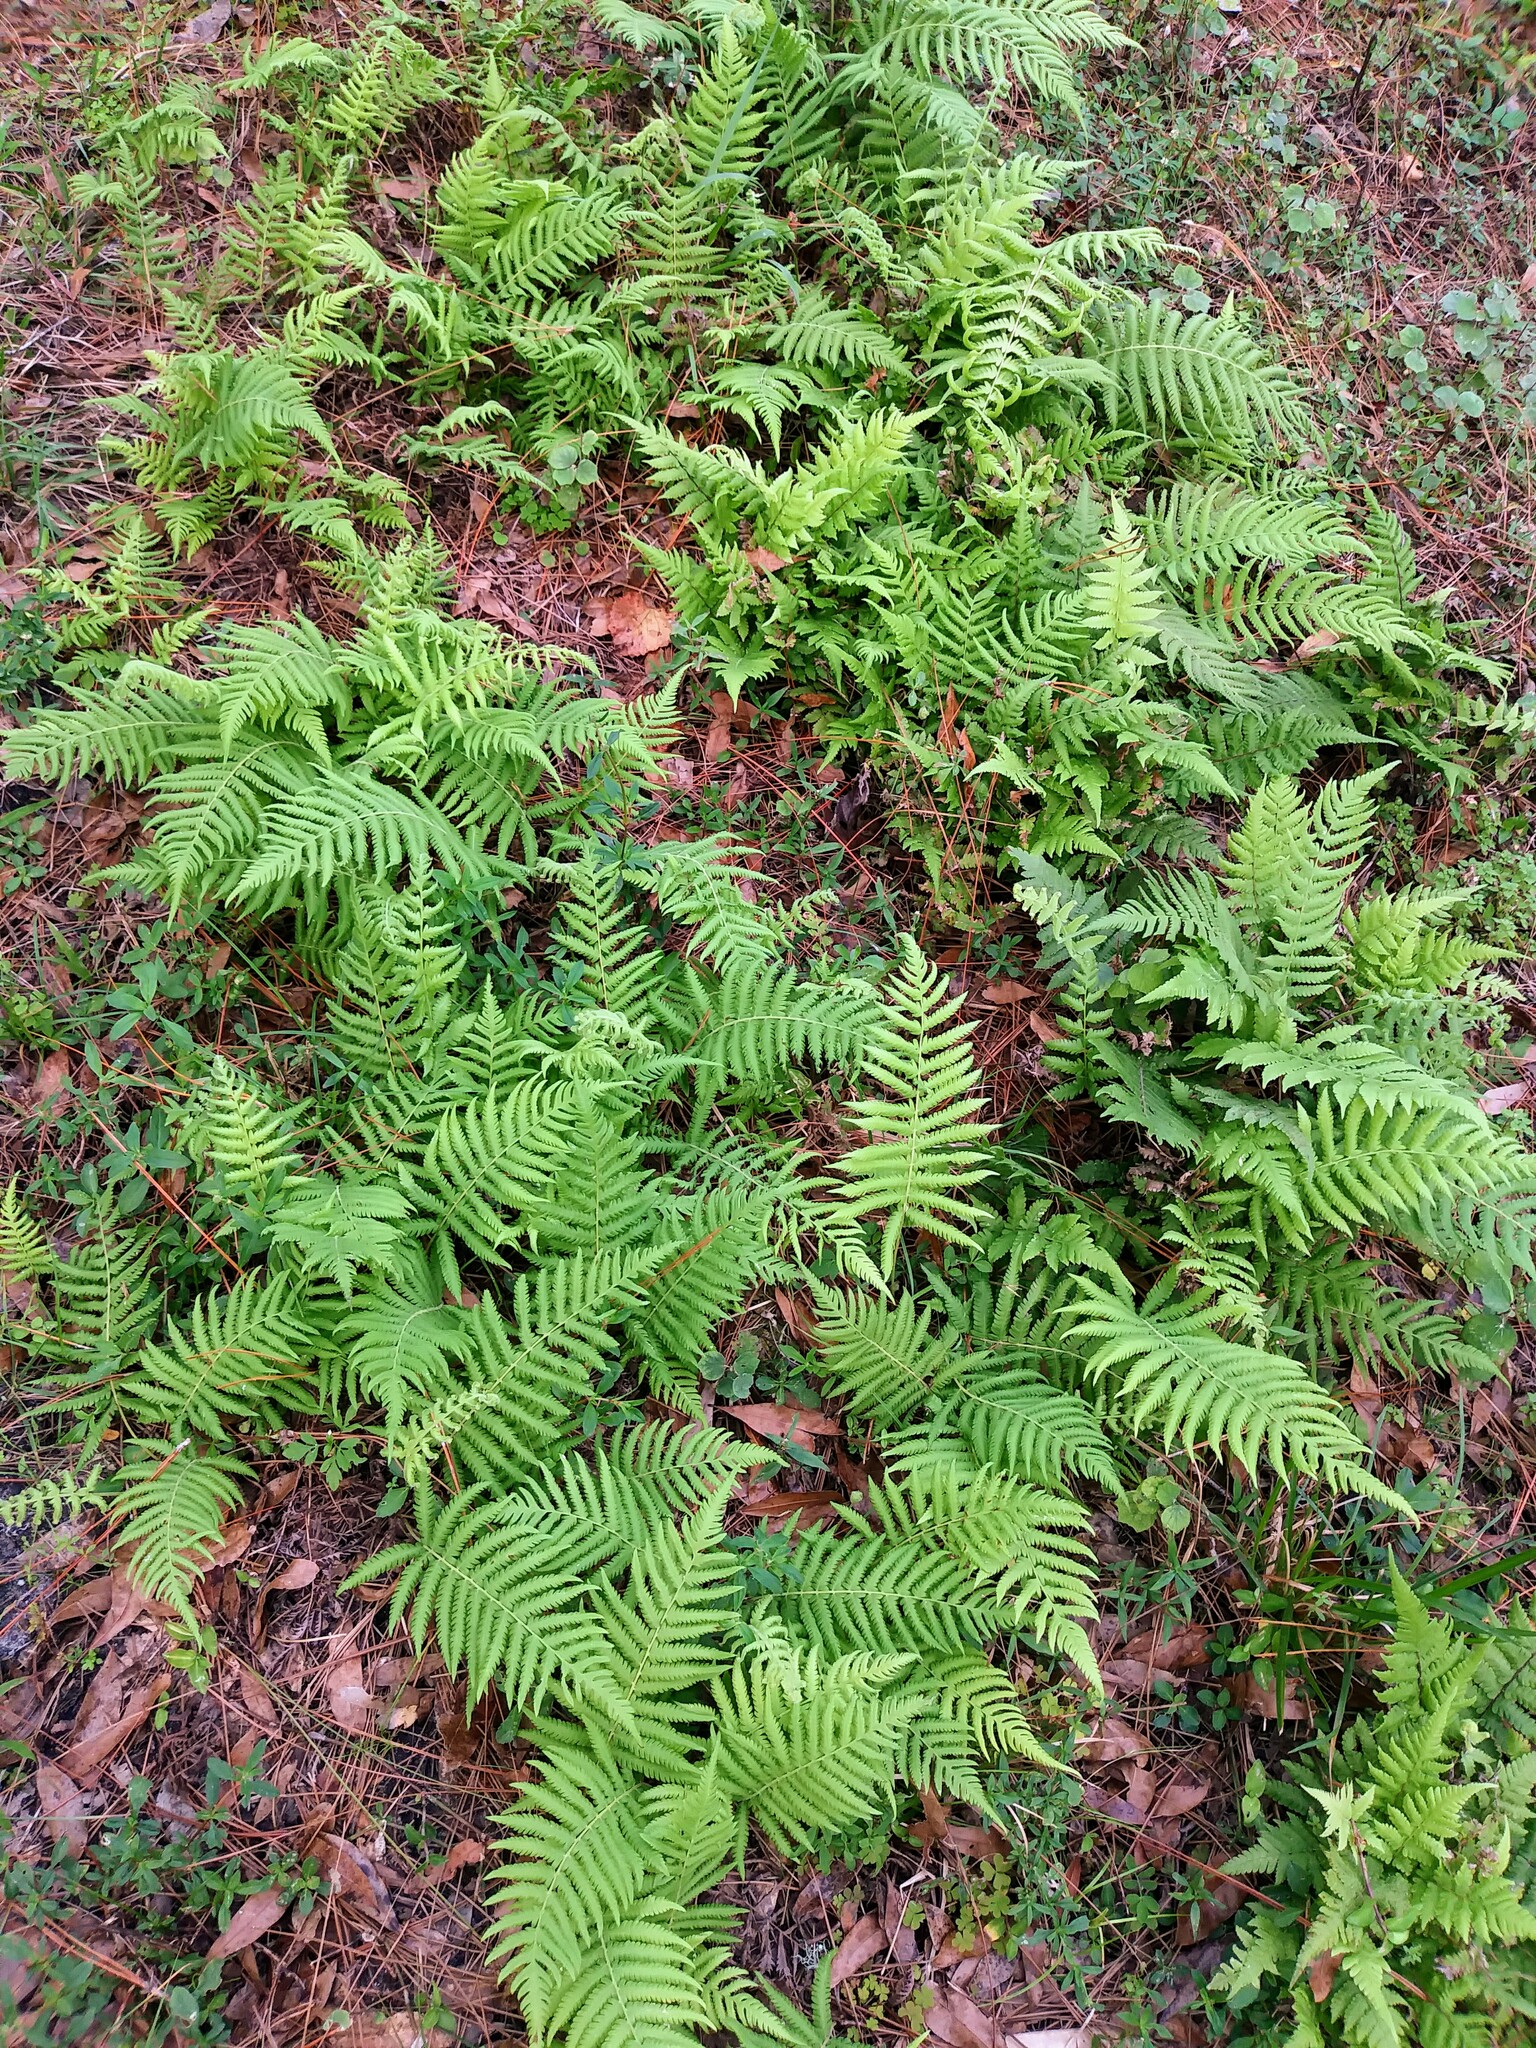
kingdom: Plantae
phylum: Tracheophyta
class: Polypodiopsida
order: Polypodiales
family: Thelypteridaceae
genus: Pelazoneuron
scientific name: Pelazoneuron kunthii
